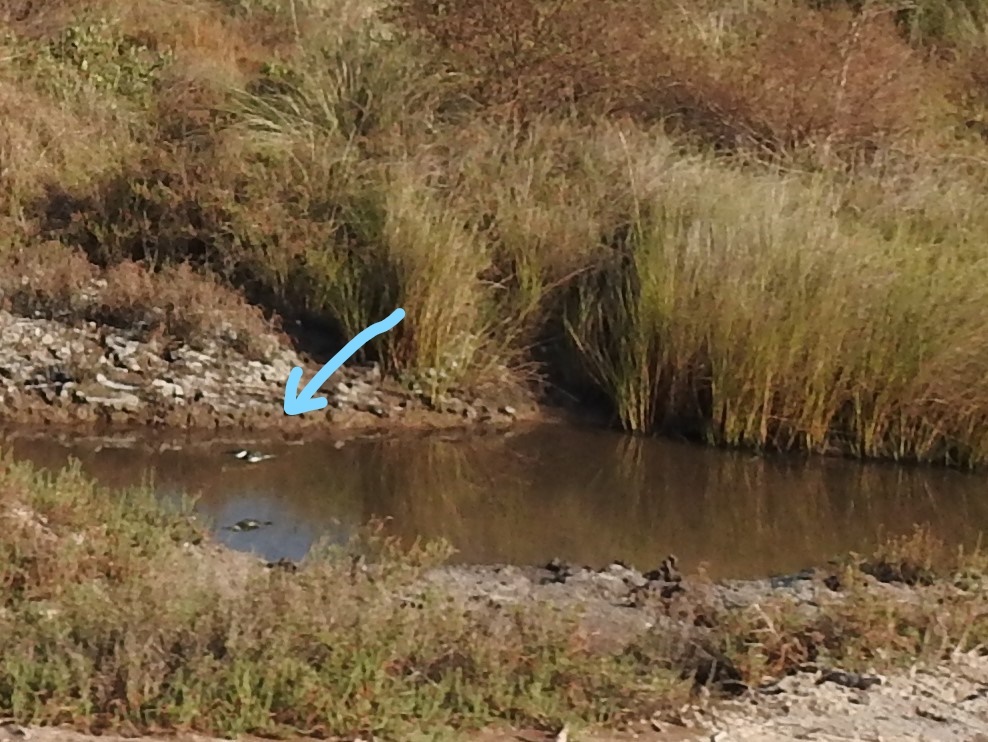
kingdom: Animalia
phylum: Chordata
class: Aves
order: Coraciiformes
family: Alcedinidae
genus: Chloroceryle
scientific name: Chloroceryle americana
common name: Green kingfisher
